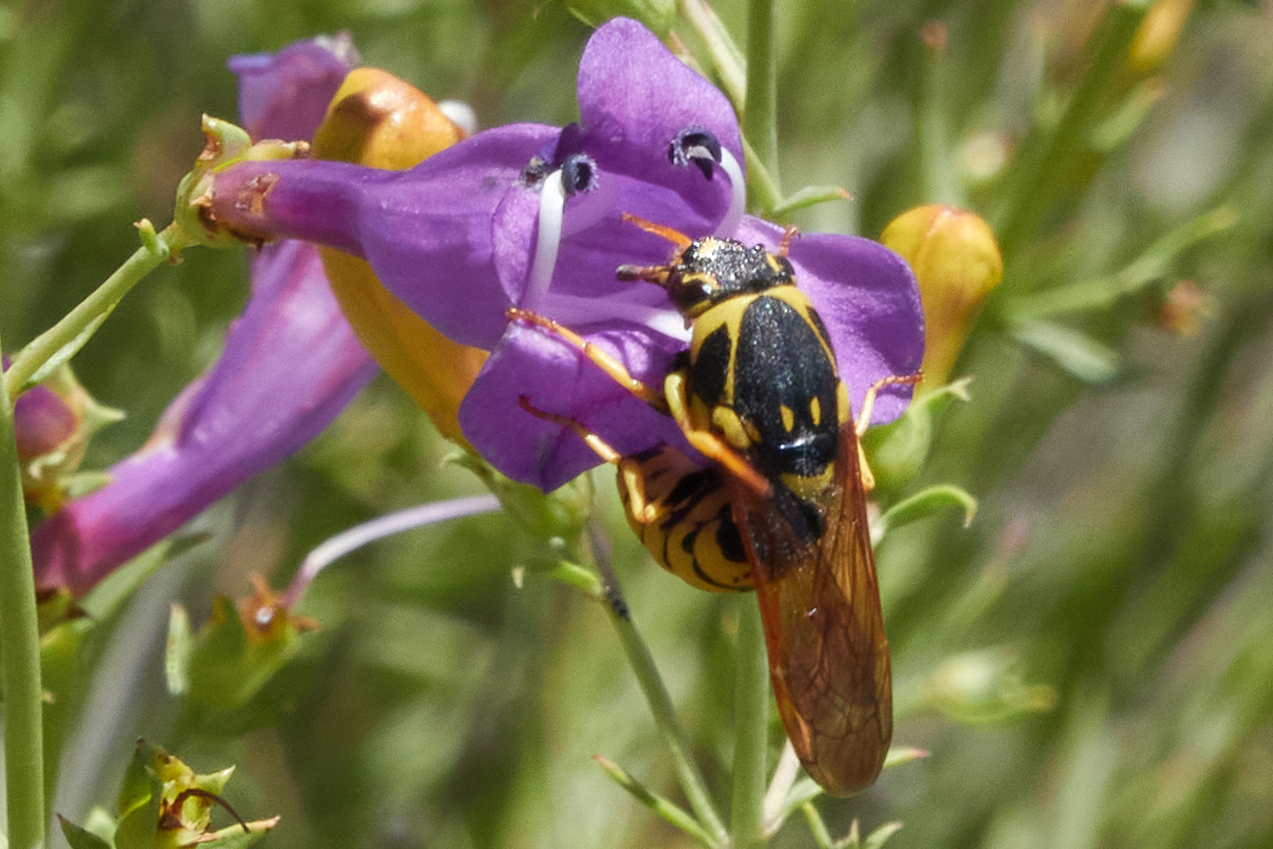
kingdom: Animalia
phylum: Arthropoda
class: Insecta
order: Hymenoptera
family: Masaridae
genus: Pseudomasaris
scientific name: Pseudomasaris vespoides
